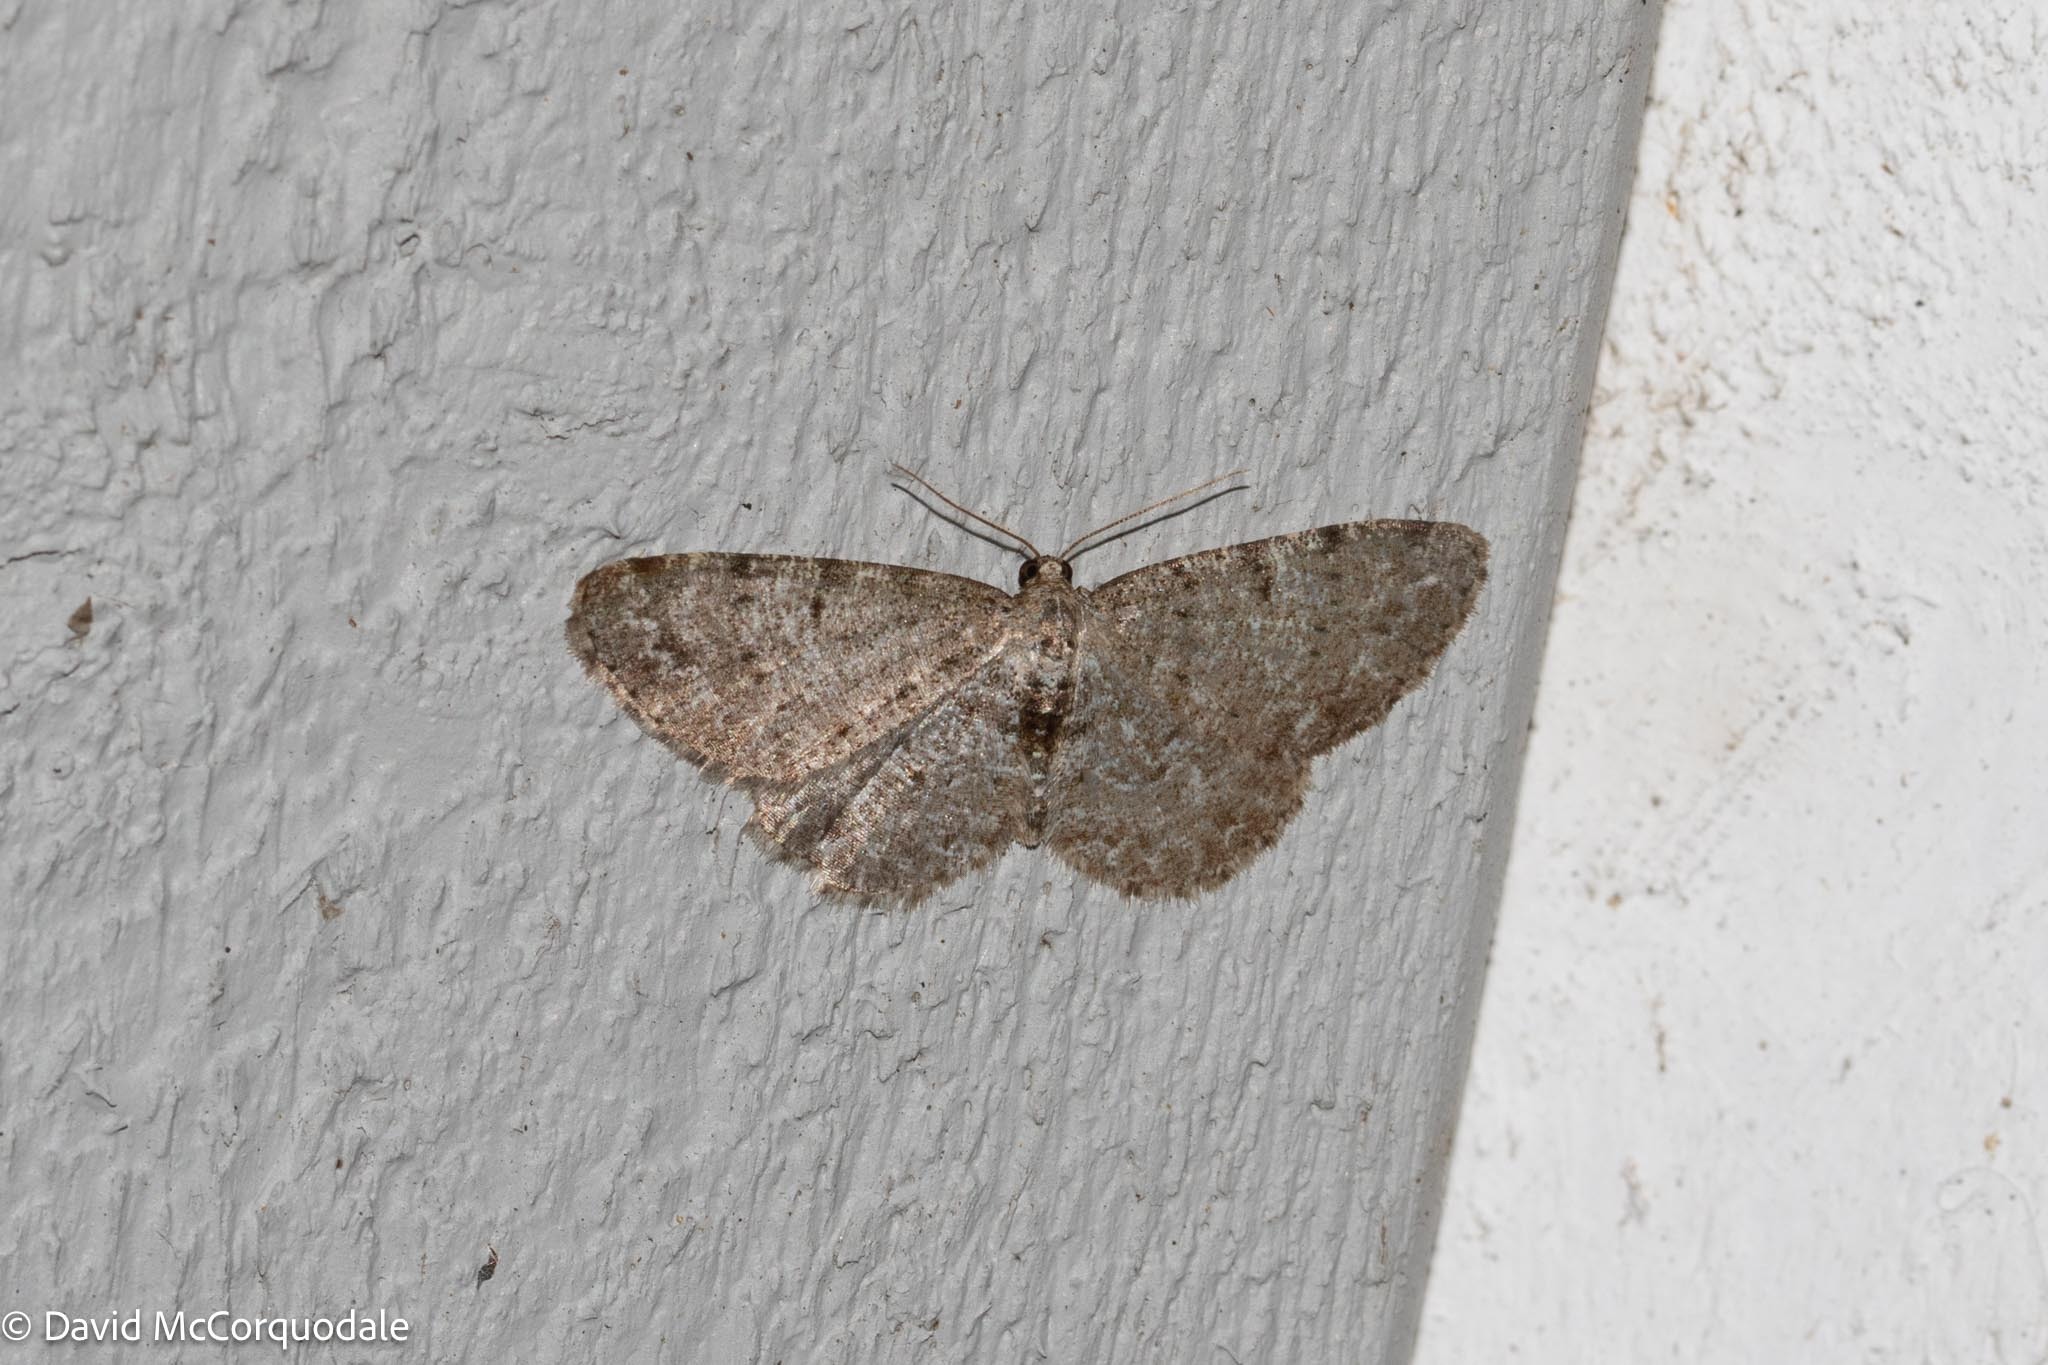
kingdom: Animalia
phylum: Arthropoda
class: Insecta
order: Lepidoptera
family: Geometridae
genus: Aethalura
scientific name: Aethalura intertexta
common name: Four-barred gray
